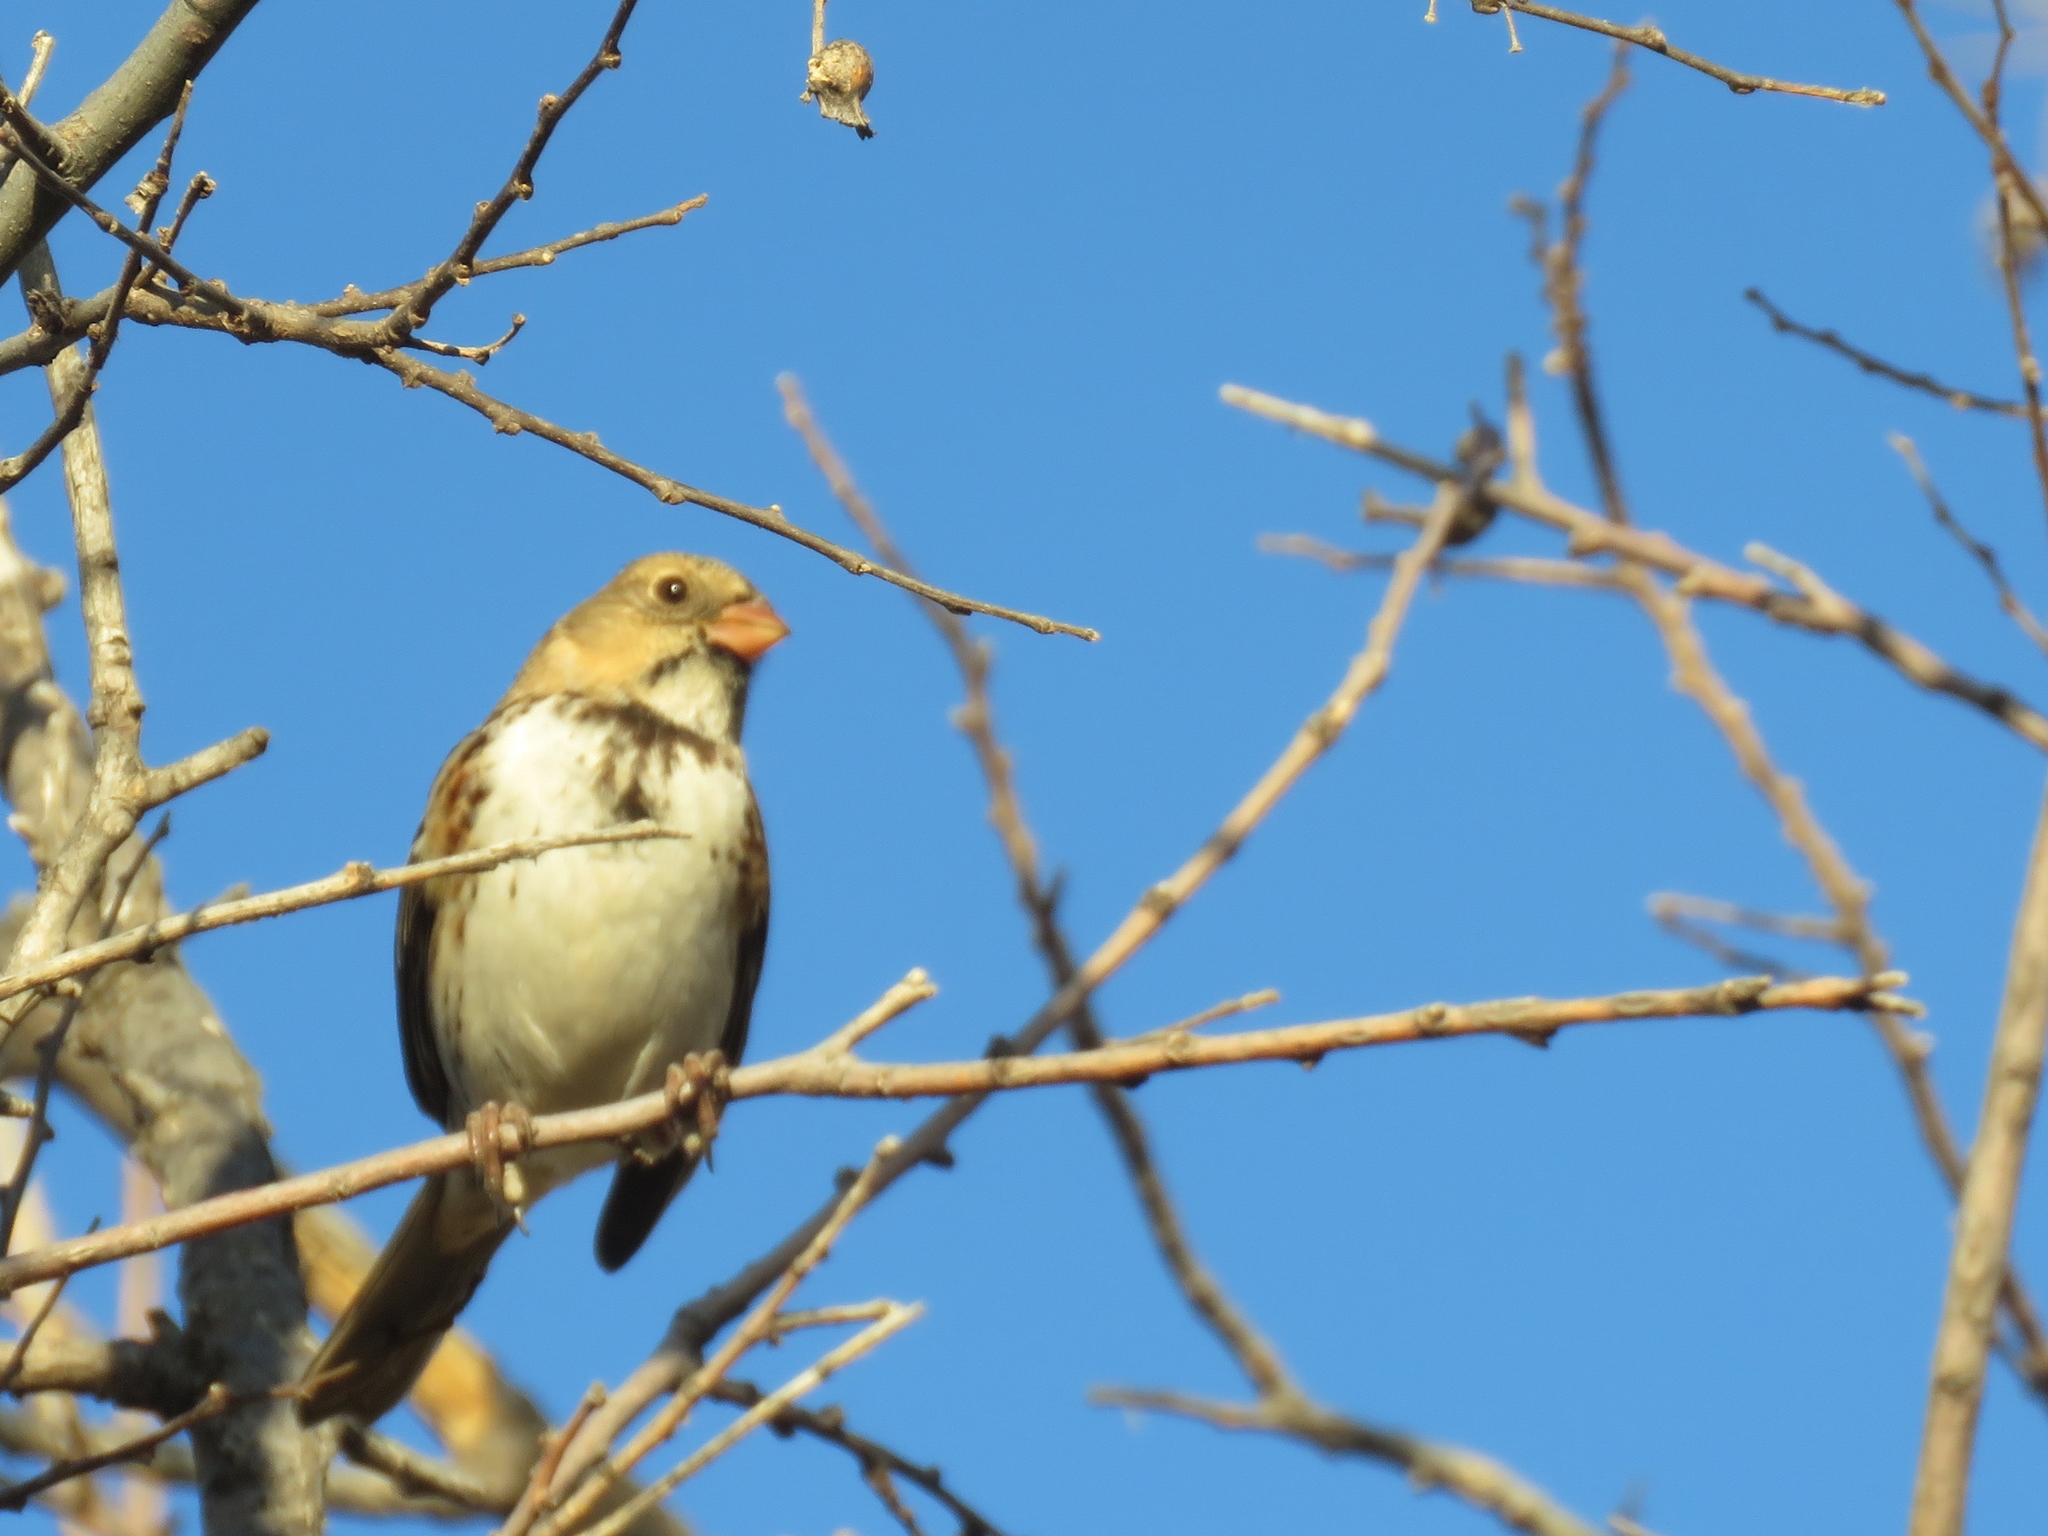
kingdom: Animalia
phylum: Chordata
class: Aves
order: Passeriformes
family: Passerellidae
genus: Zonotrichia
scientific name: Zonotrichia querula
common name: Harris's sparrow
